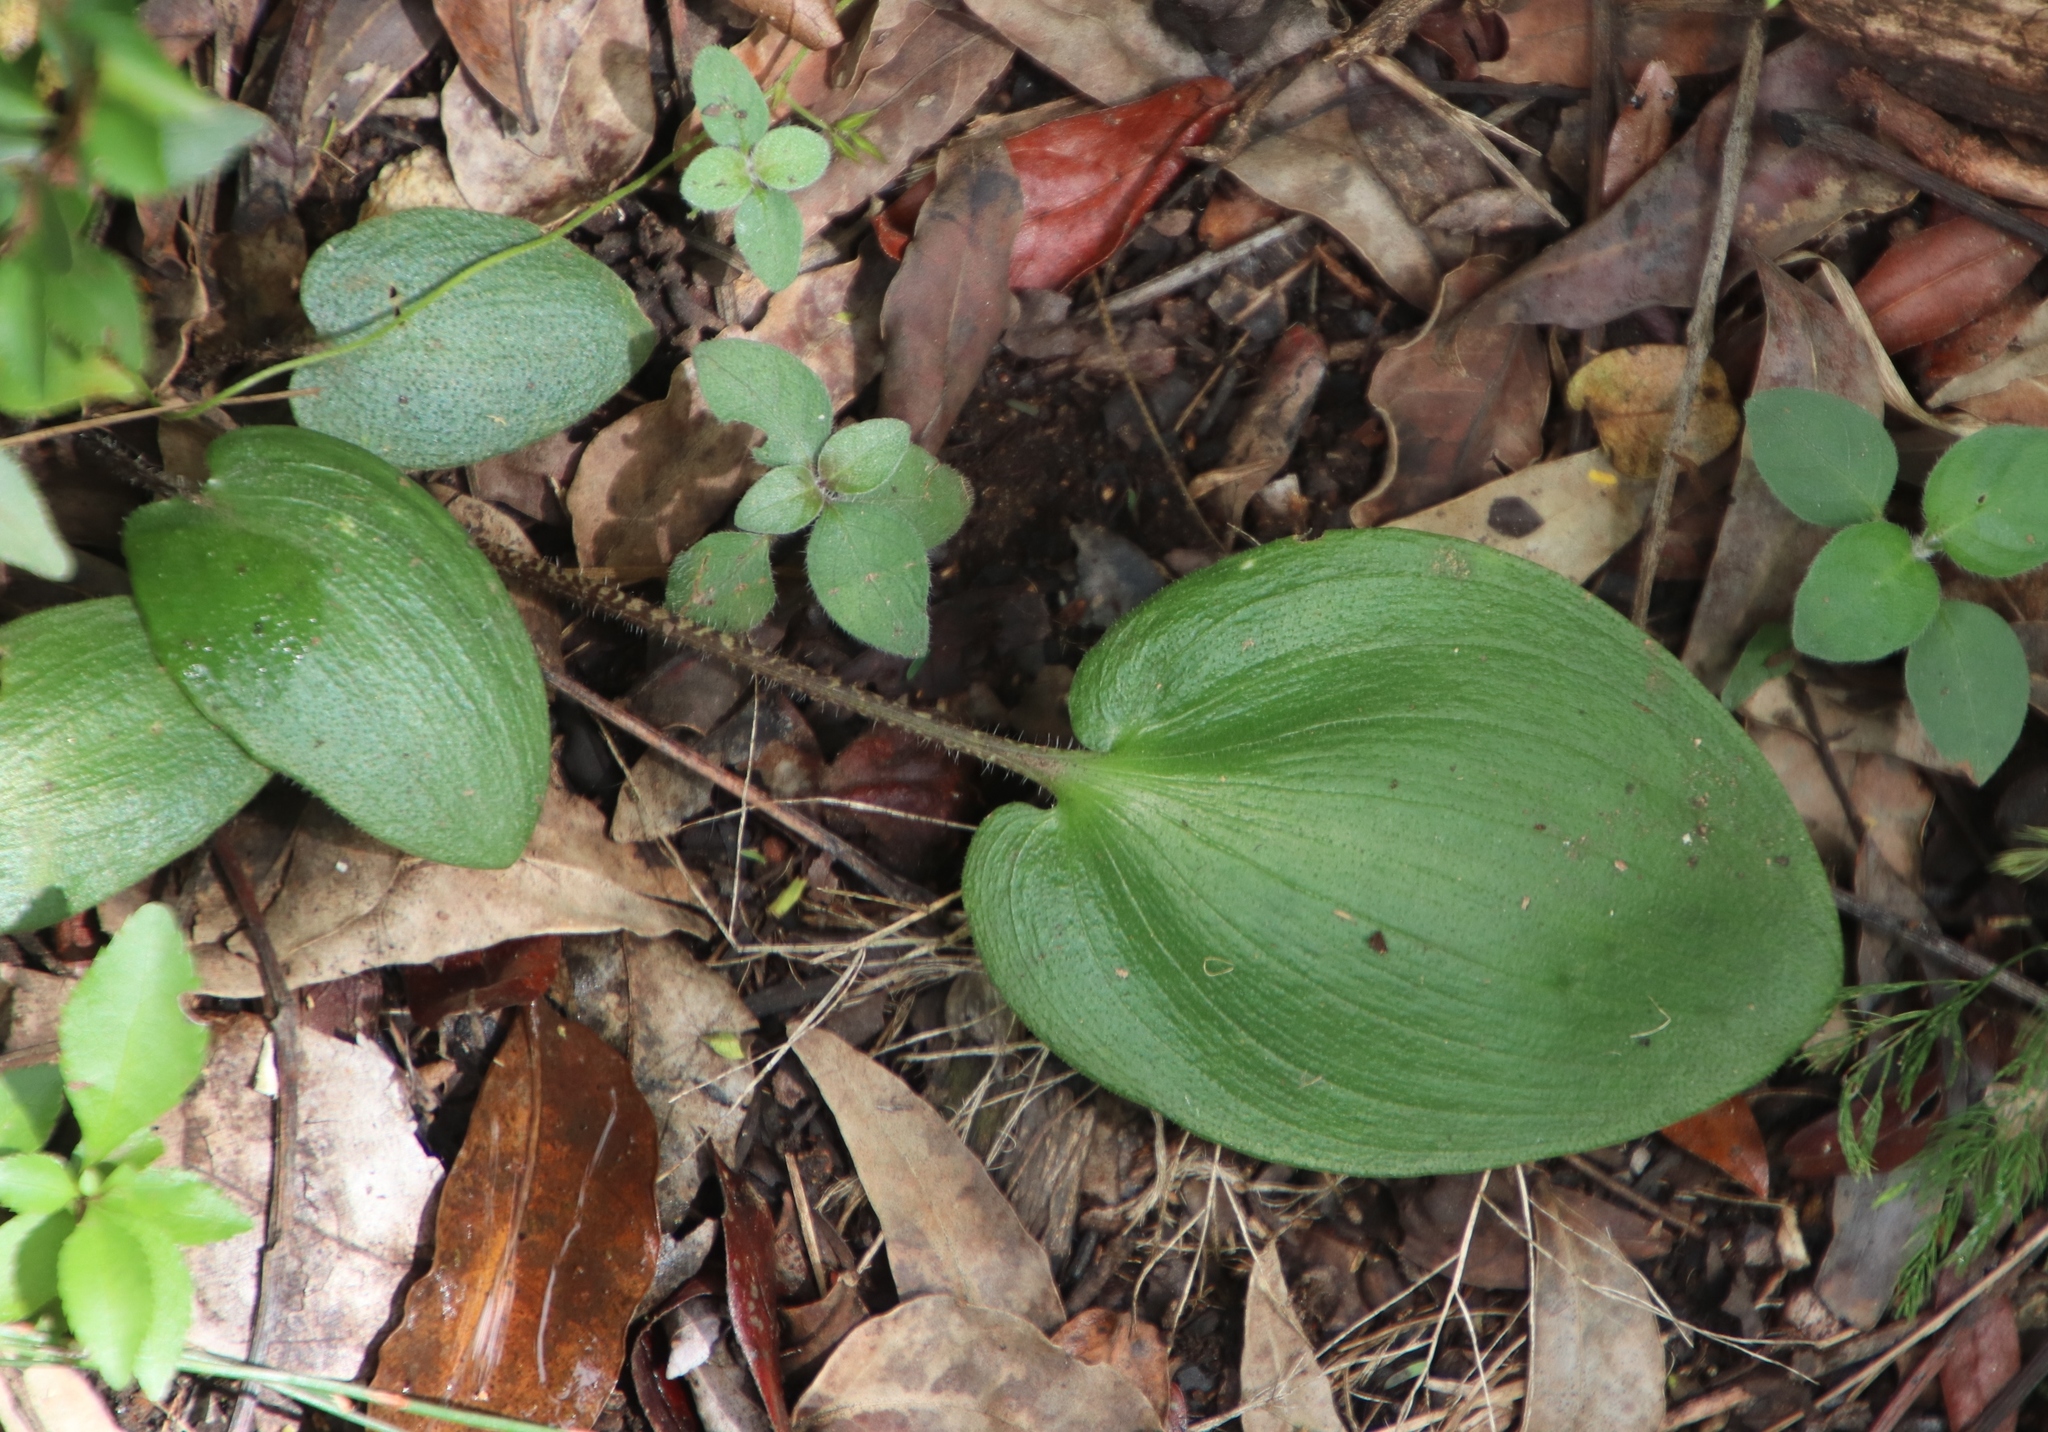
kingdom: Plantae
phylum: Tracheophyta
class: Liliopsida
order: Asparagales
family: Asparagaceae
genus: Drimiopsis
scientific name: Drimiopsis atropurpurea
